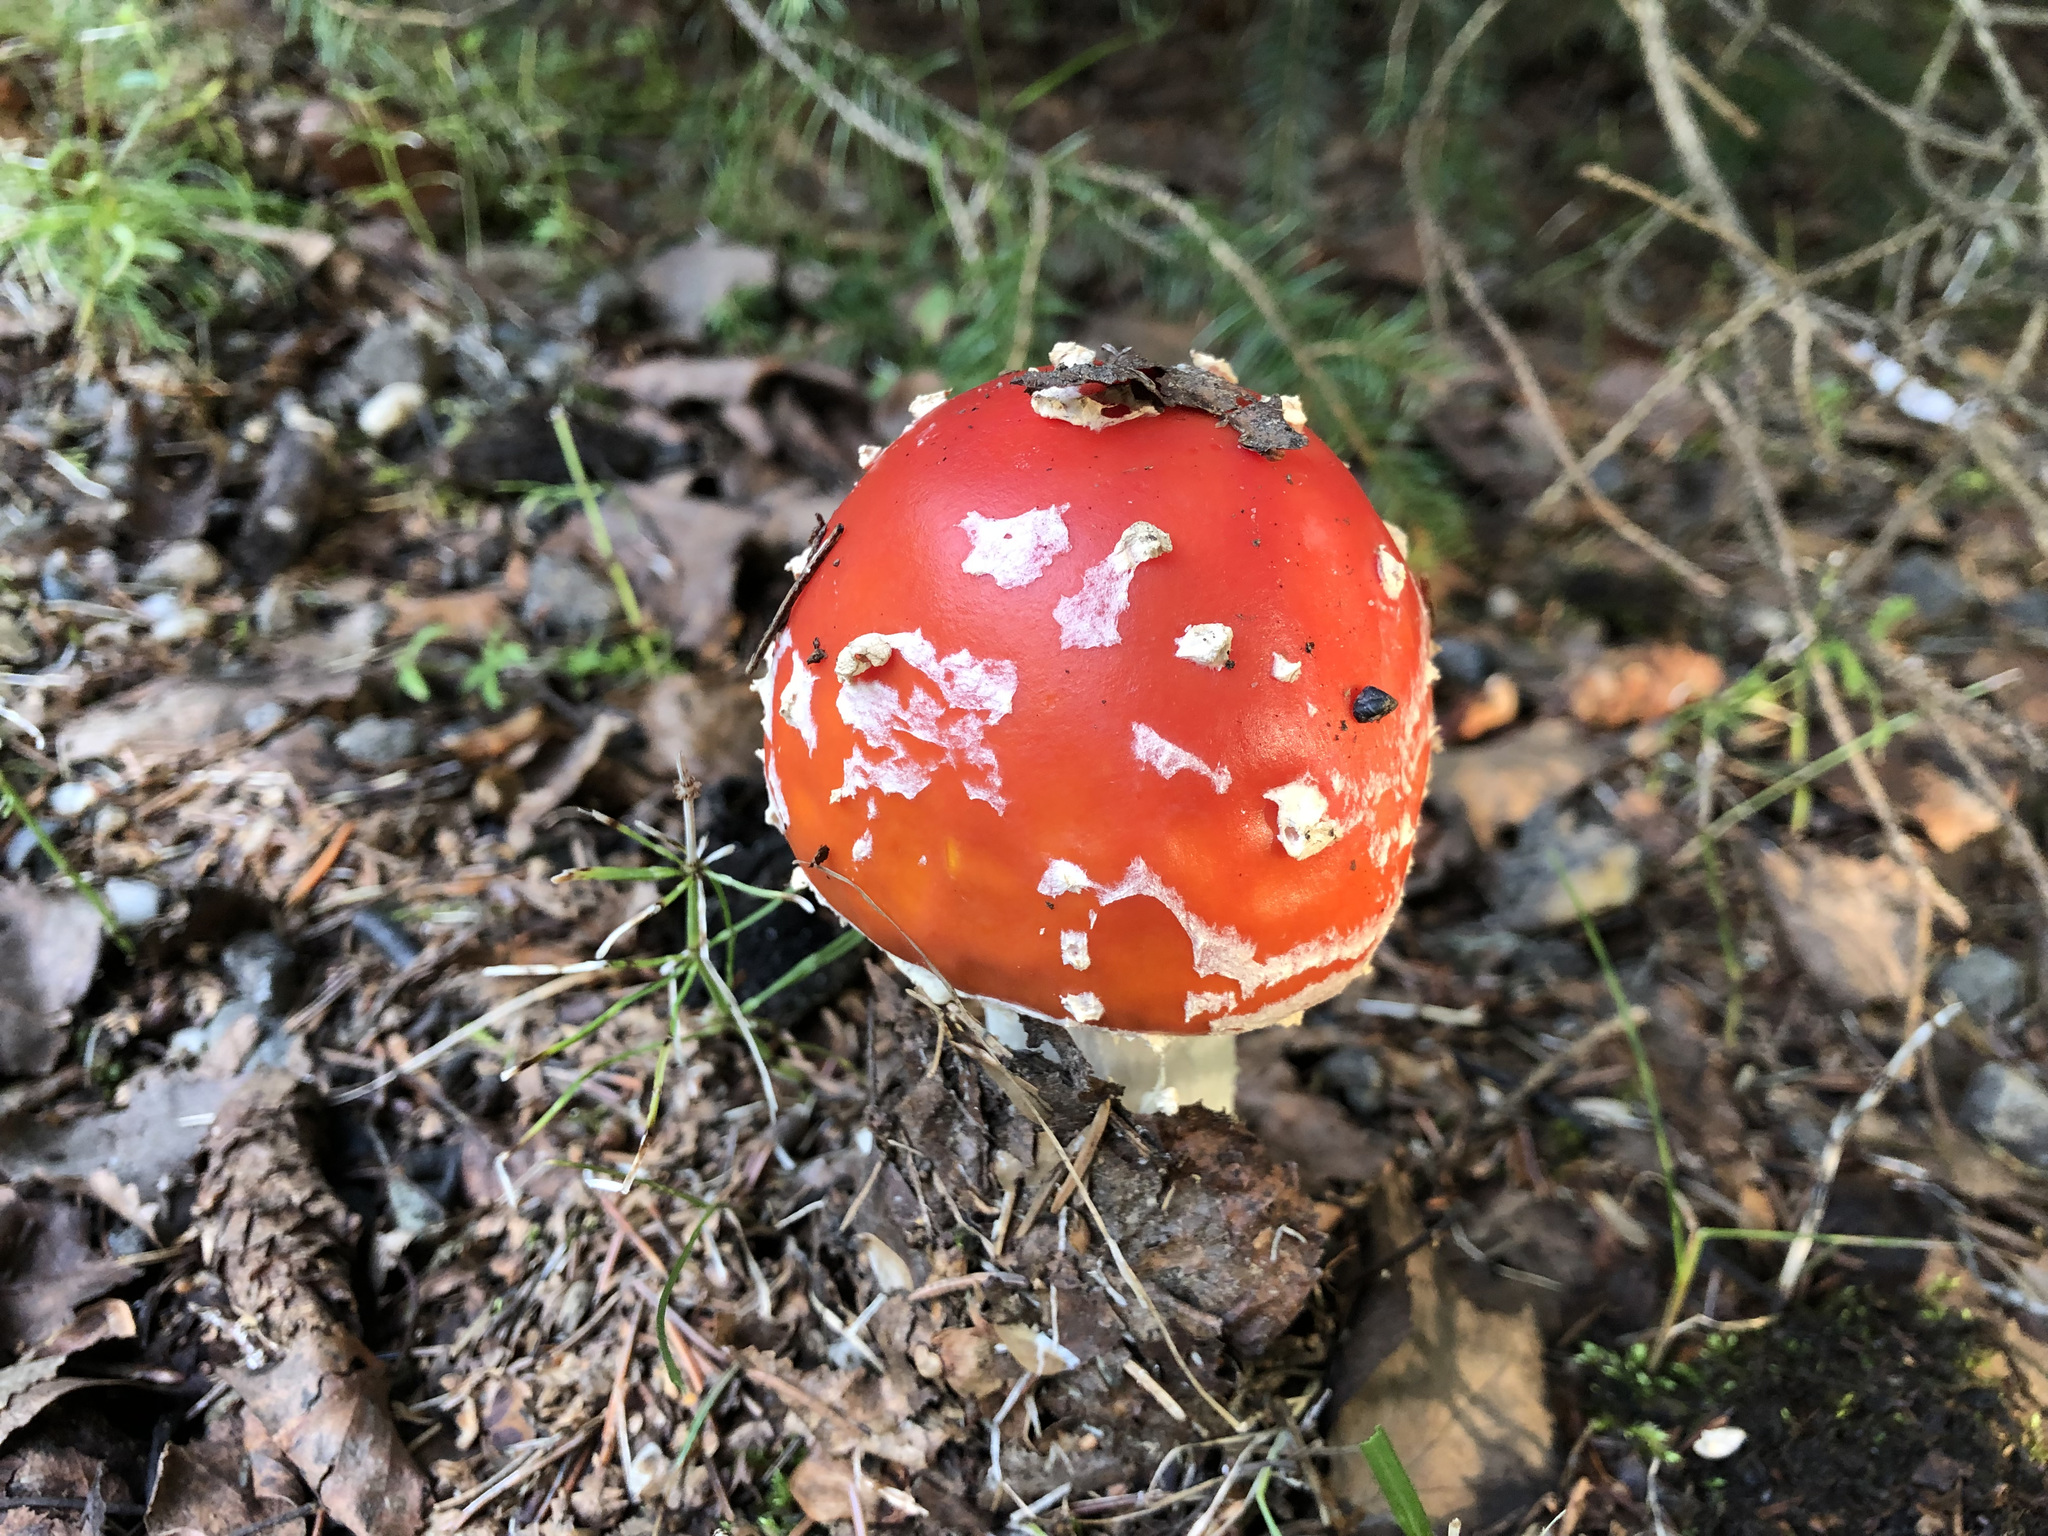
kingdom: Fungi
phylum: Basidiomycota
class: Agaricomycetes
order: Agaricales
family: Amanitaceae
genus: Amanita
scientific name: Amanita muscaria
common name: Fly agaric
